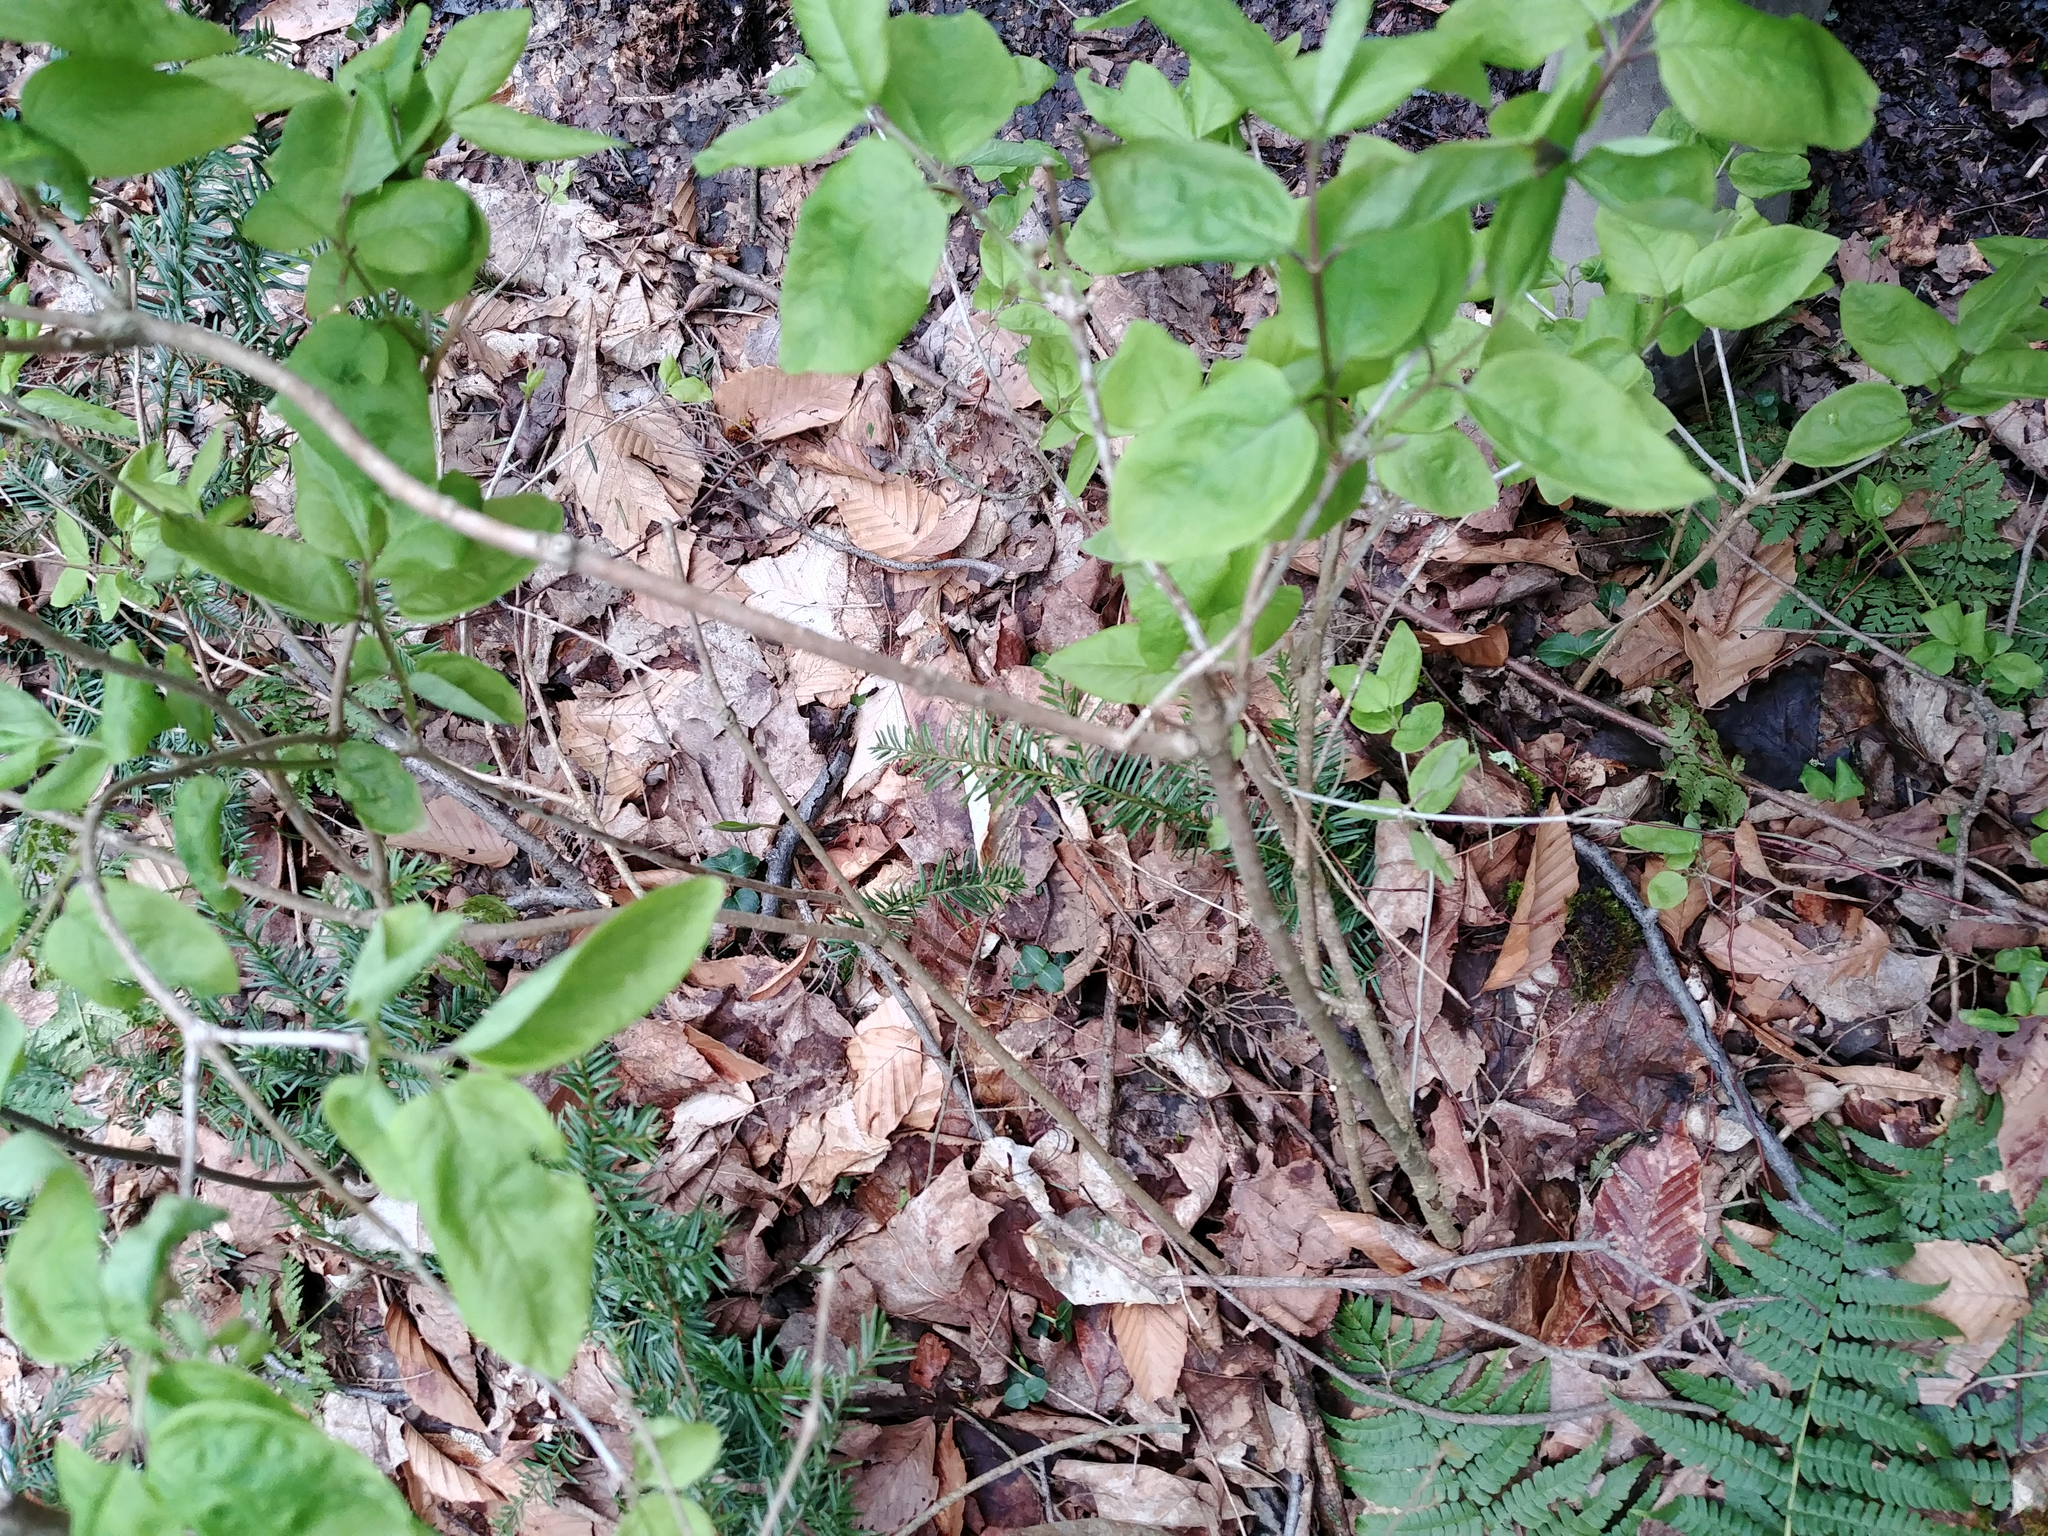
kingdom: Plantae
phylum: Tracheophyta
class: Magnoliopsida
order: Dipsacales
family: Caprifoliaceae
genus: Lonicera
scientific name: Lonicera canadensis
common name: American fly-honeysuckle
